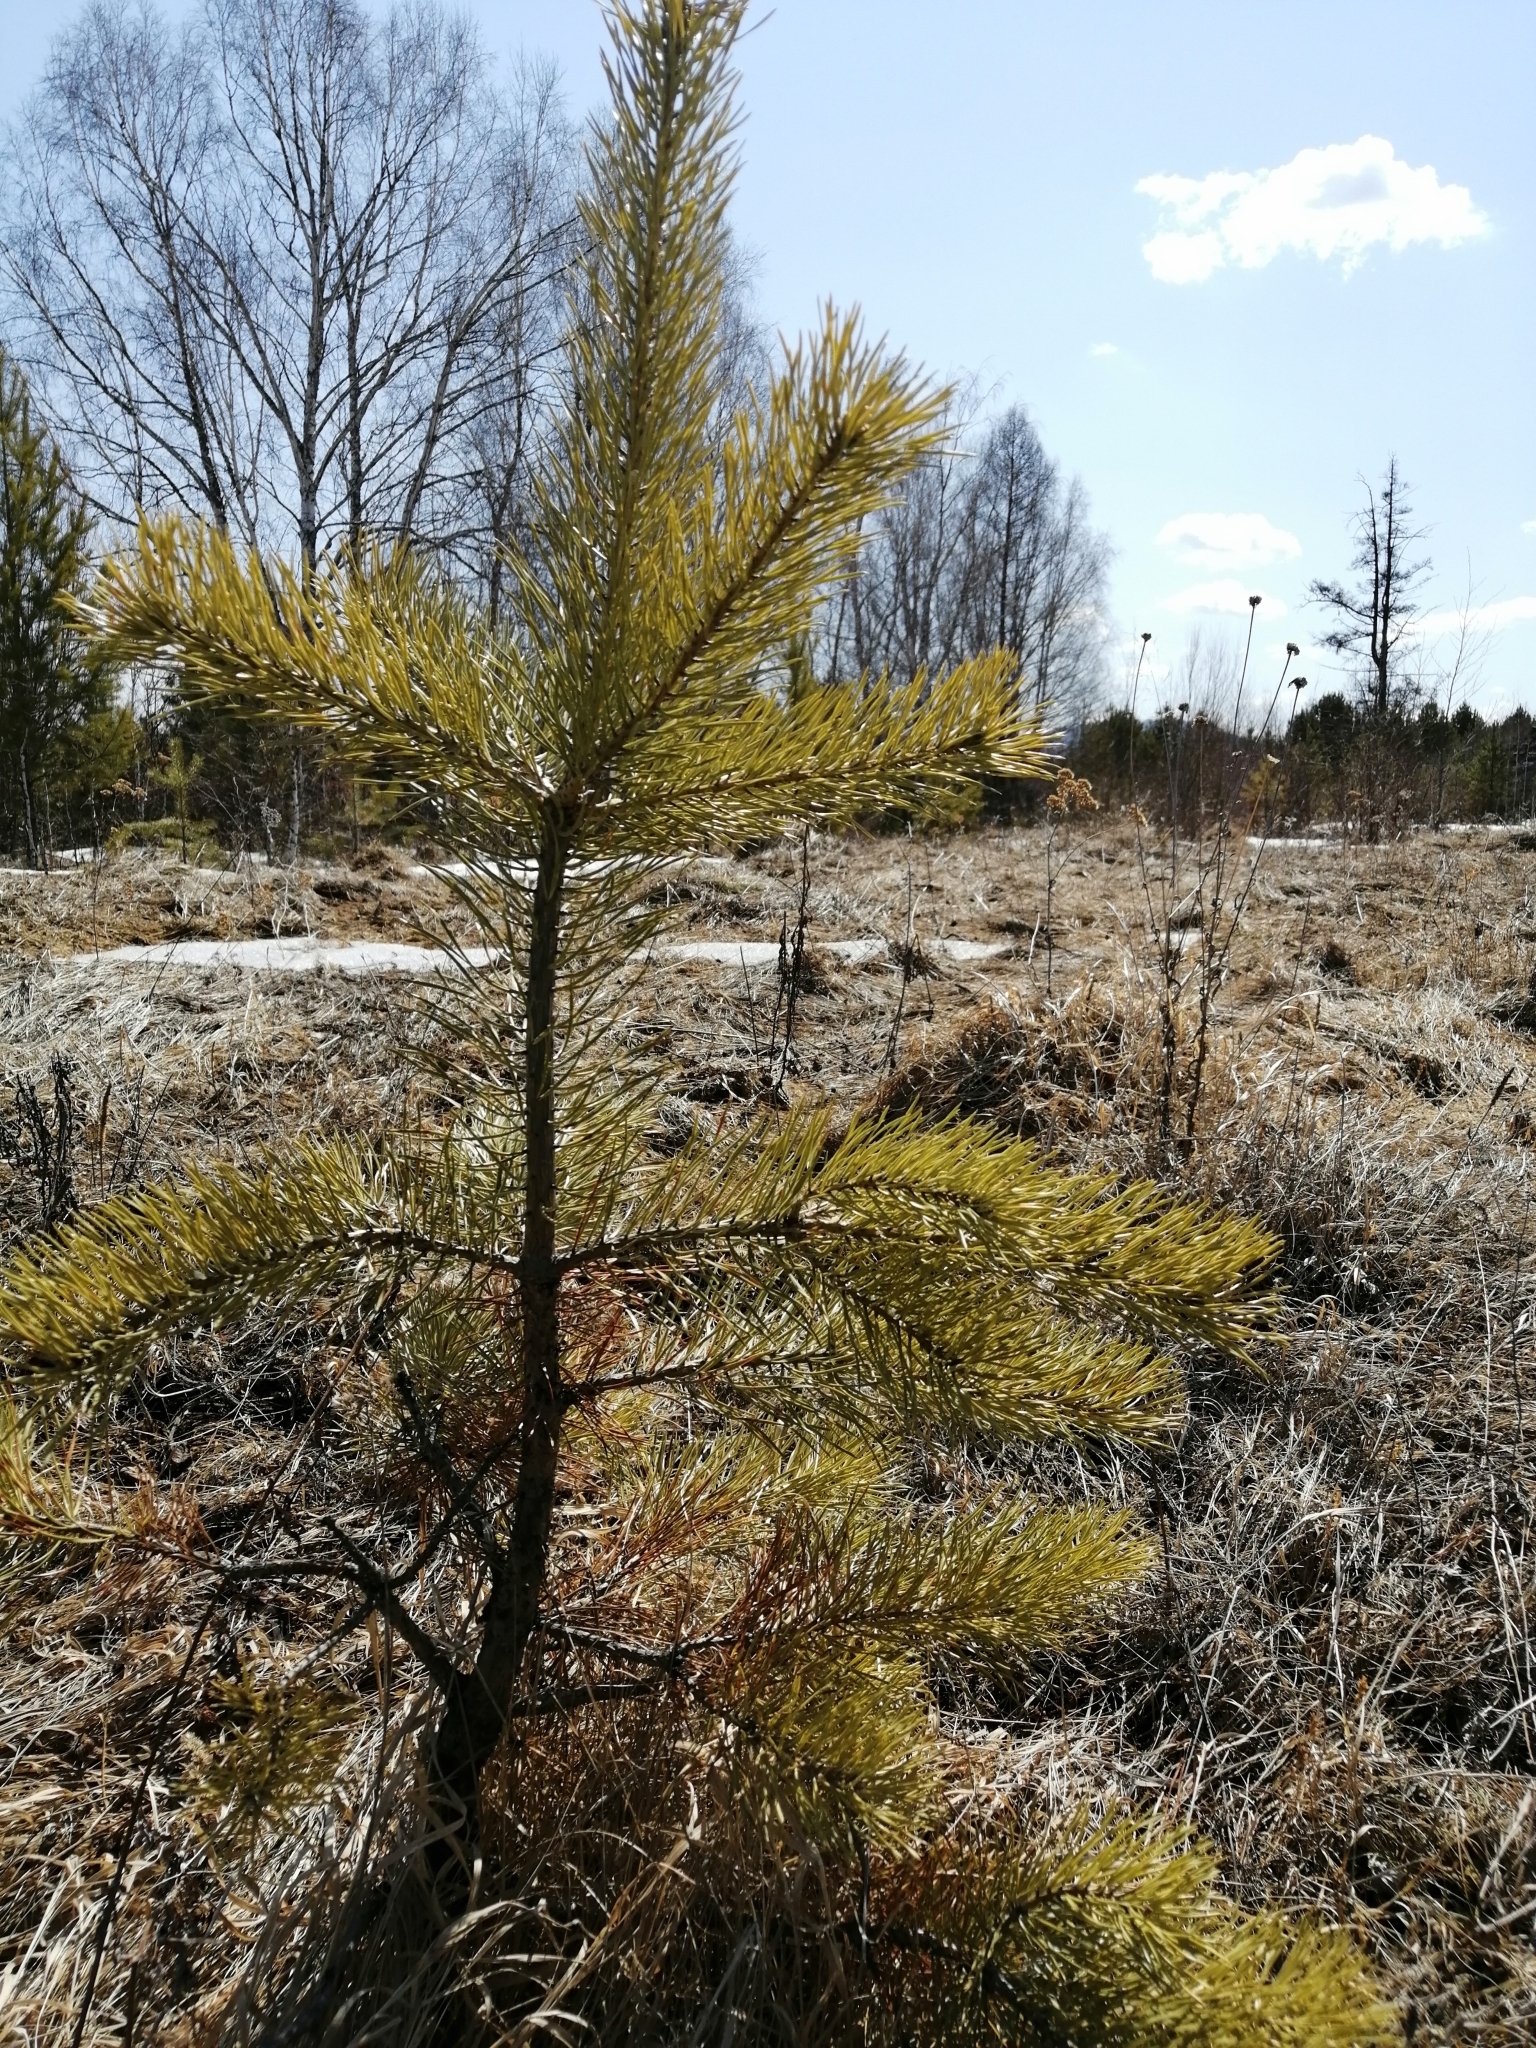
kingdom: Plantae
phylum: Tracheophyta
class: Pinopsida
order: Pinales
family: Pinaceae
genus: Pinus
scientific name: Pinus sylvestris
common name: Scots pine
